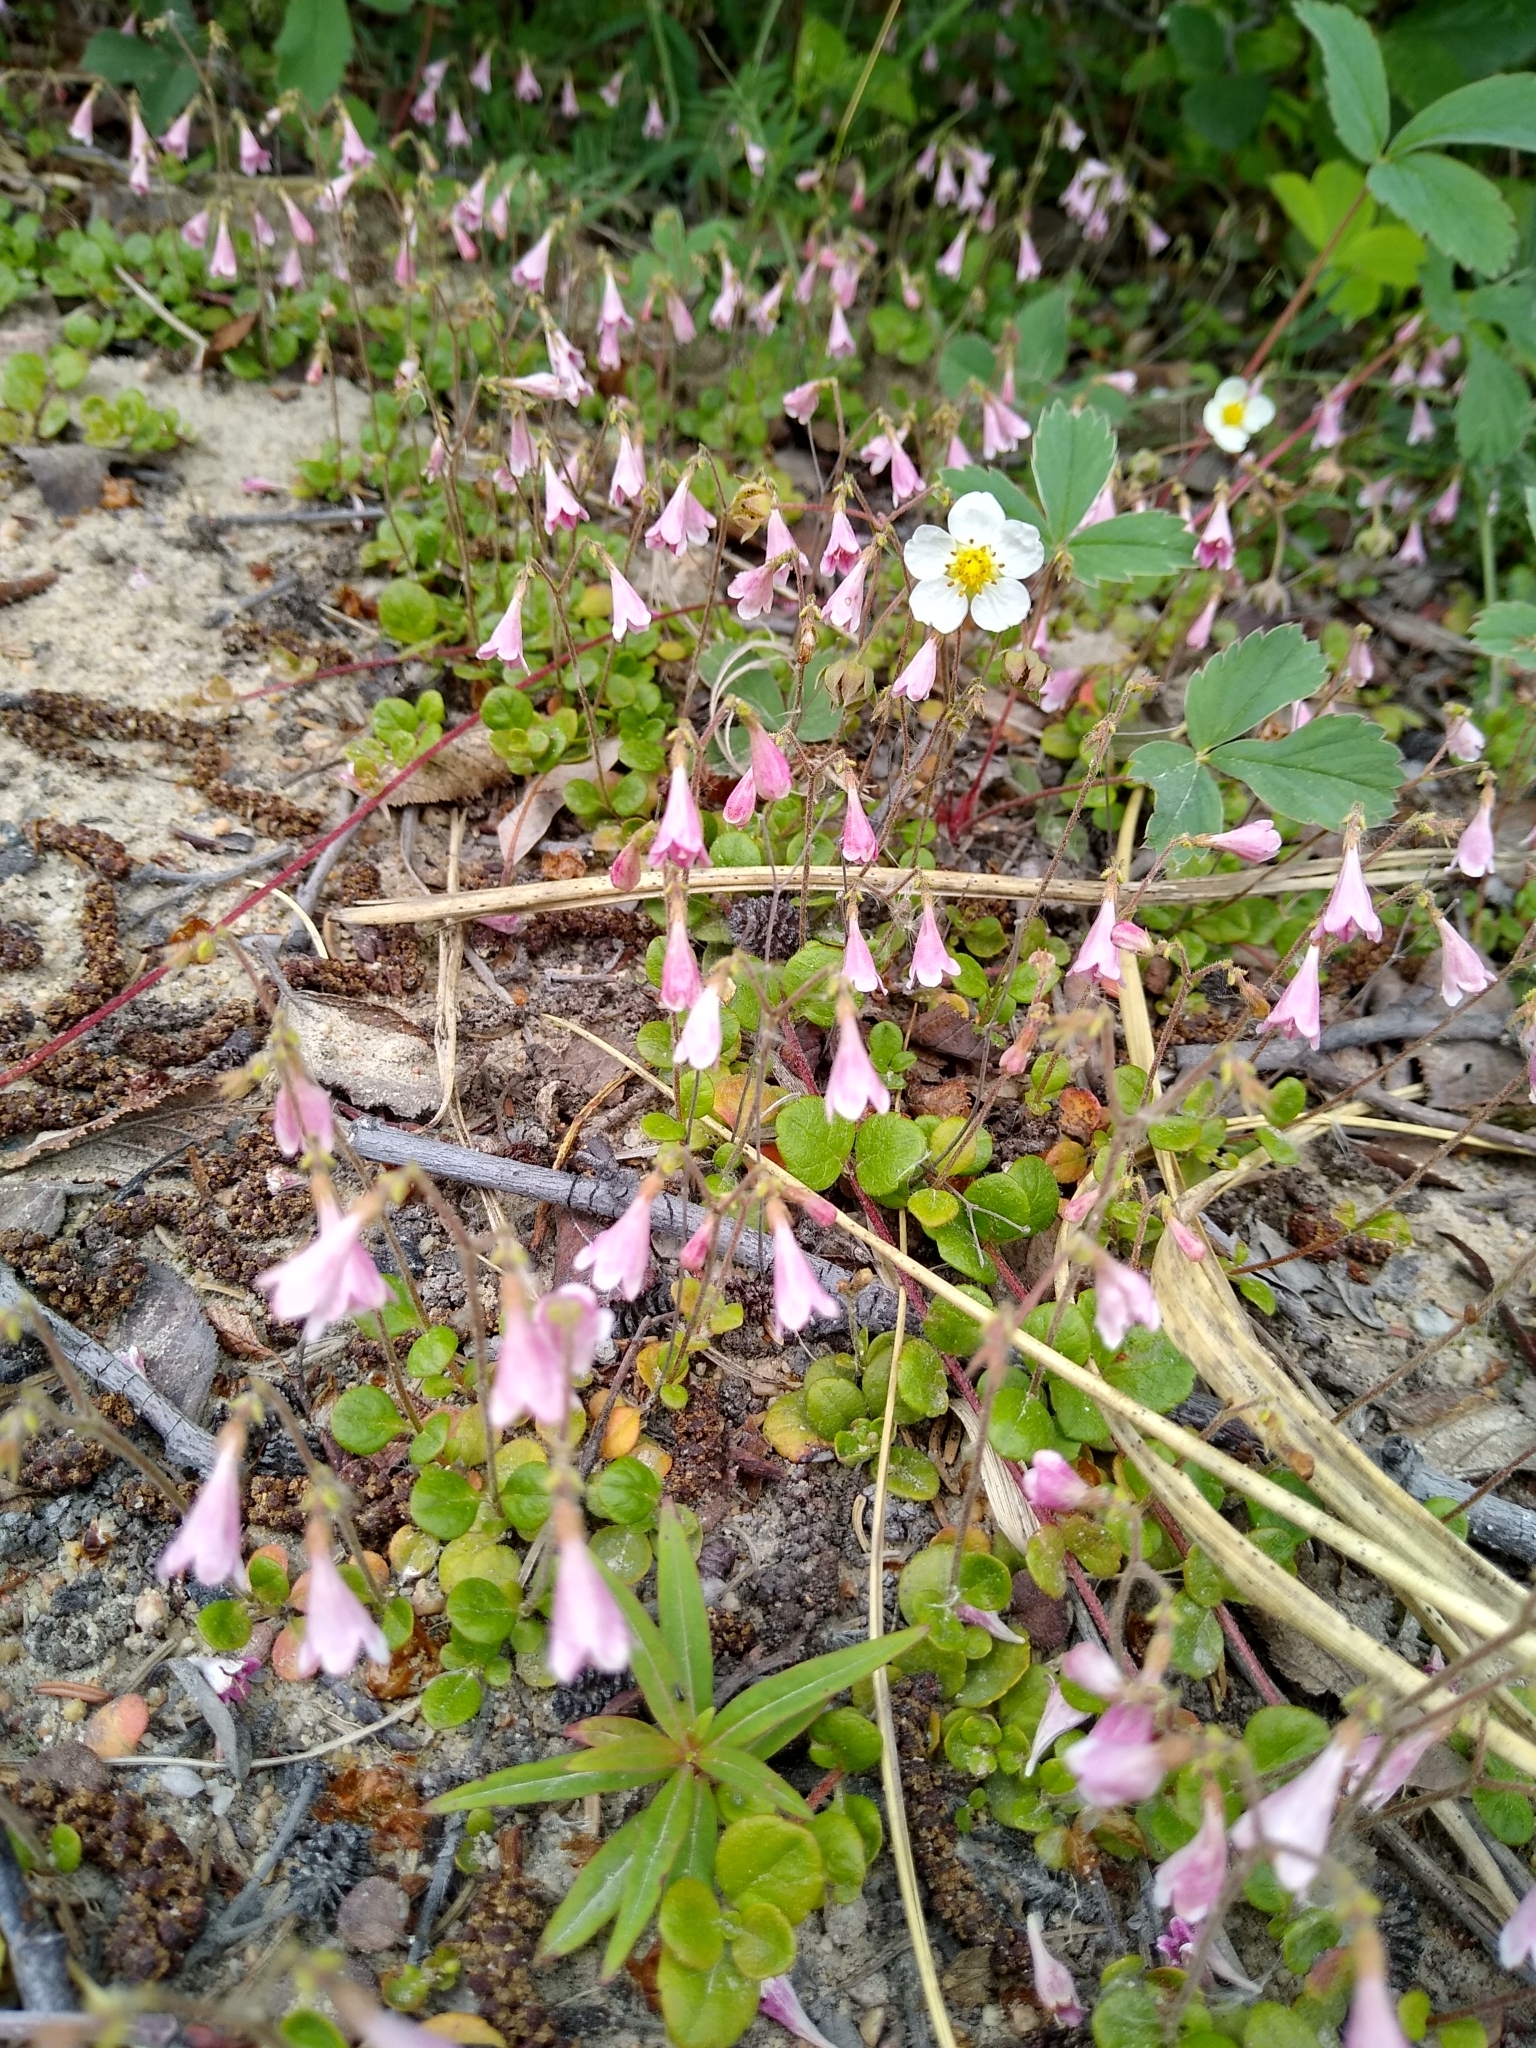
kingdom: Plantae
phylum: Tracheophyta
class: Magnoliopsida
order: Dipsacales
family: Caprifoliaceae
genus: Linnaea
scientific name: Linnaea borealis
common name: Twinflower
